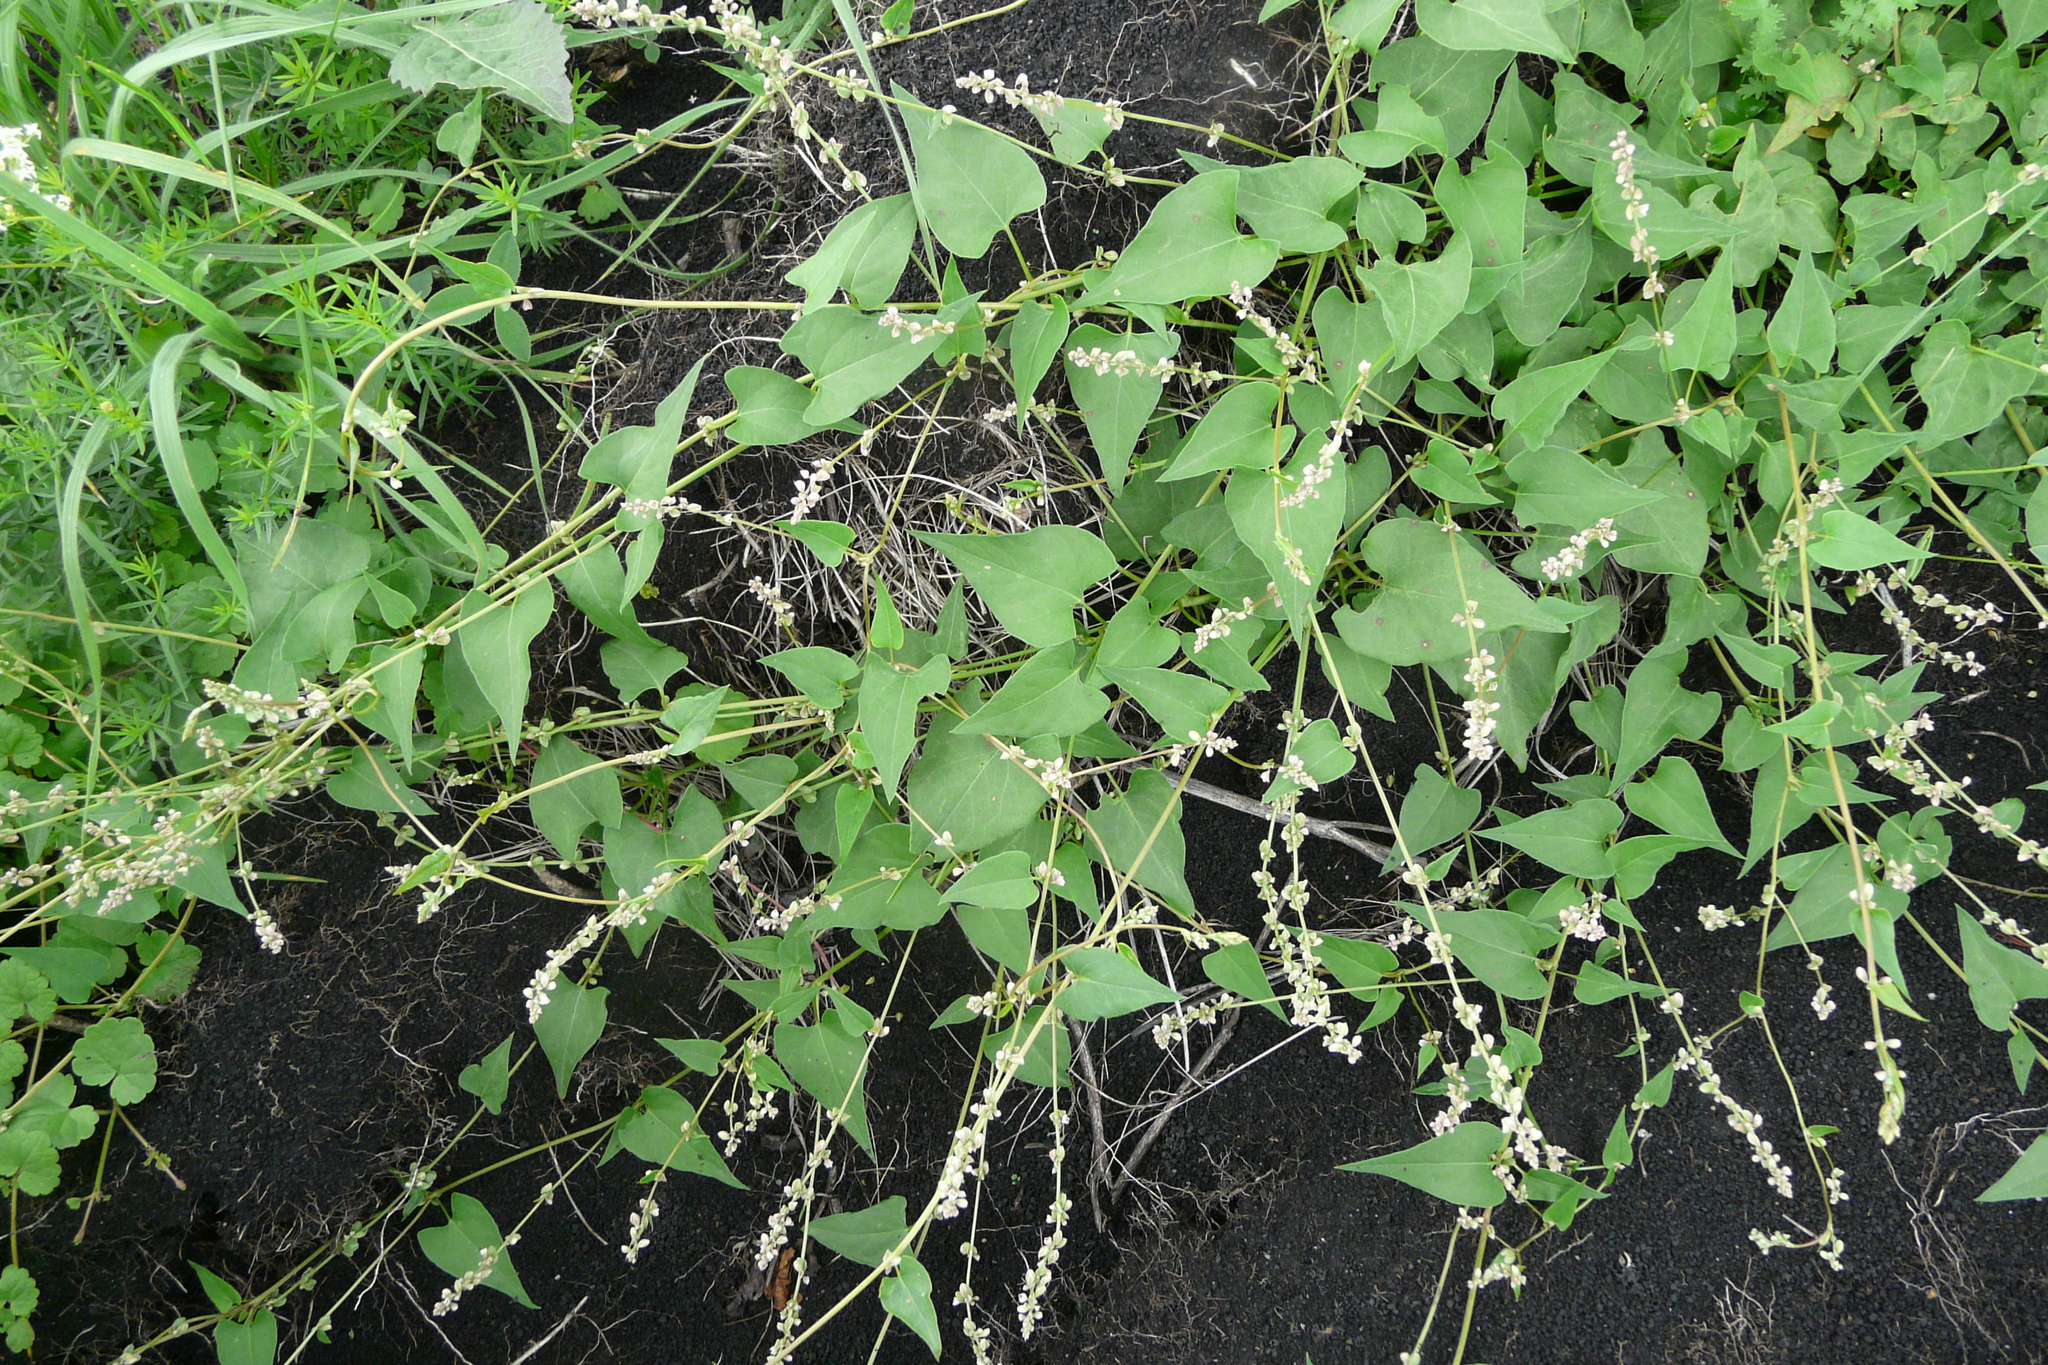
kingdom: Plantae
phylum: Tracheophyta
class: Magnoliopsida
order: Caryophyllales
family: Polygonaceae
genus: Fallopia
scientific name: Fallopia convolvulus
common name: Black bindweed
